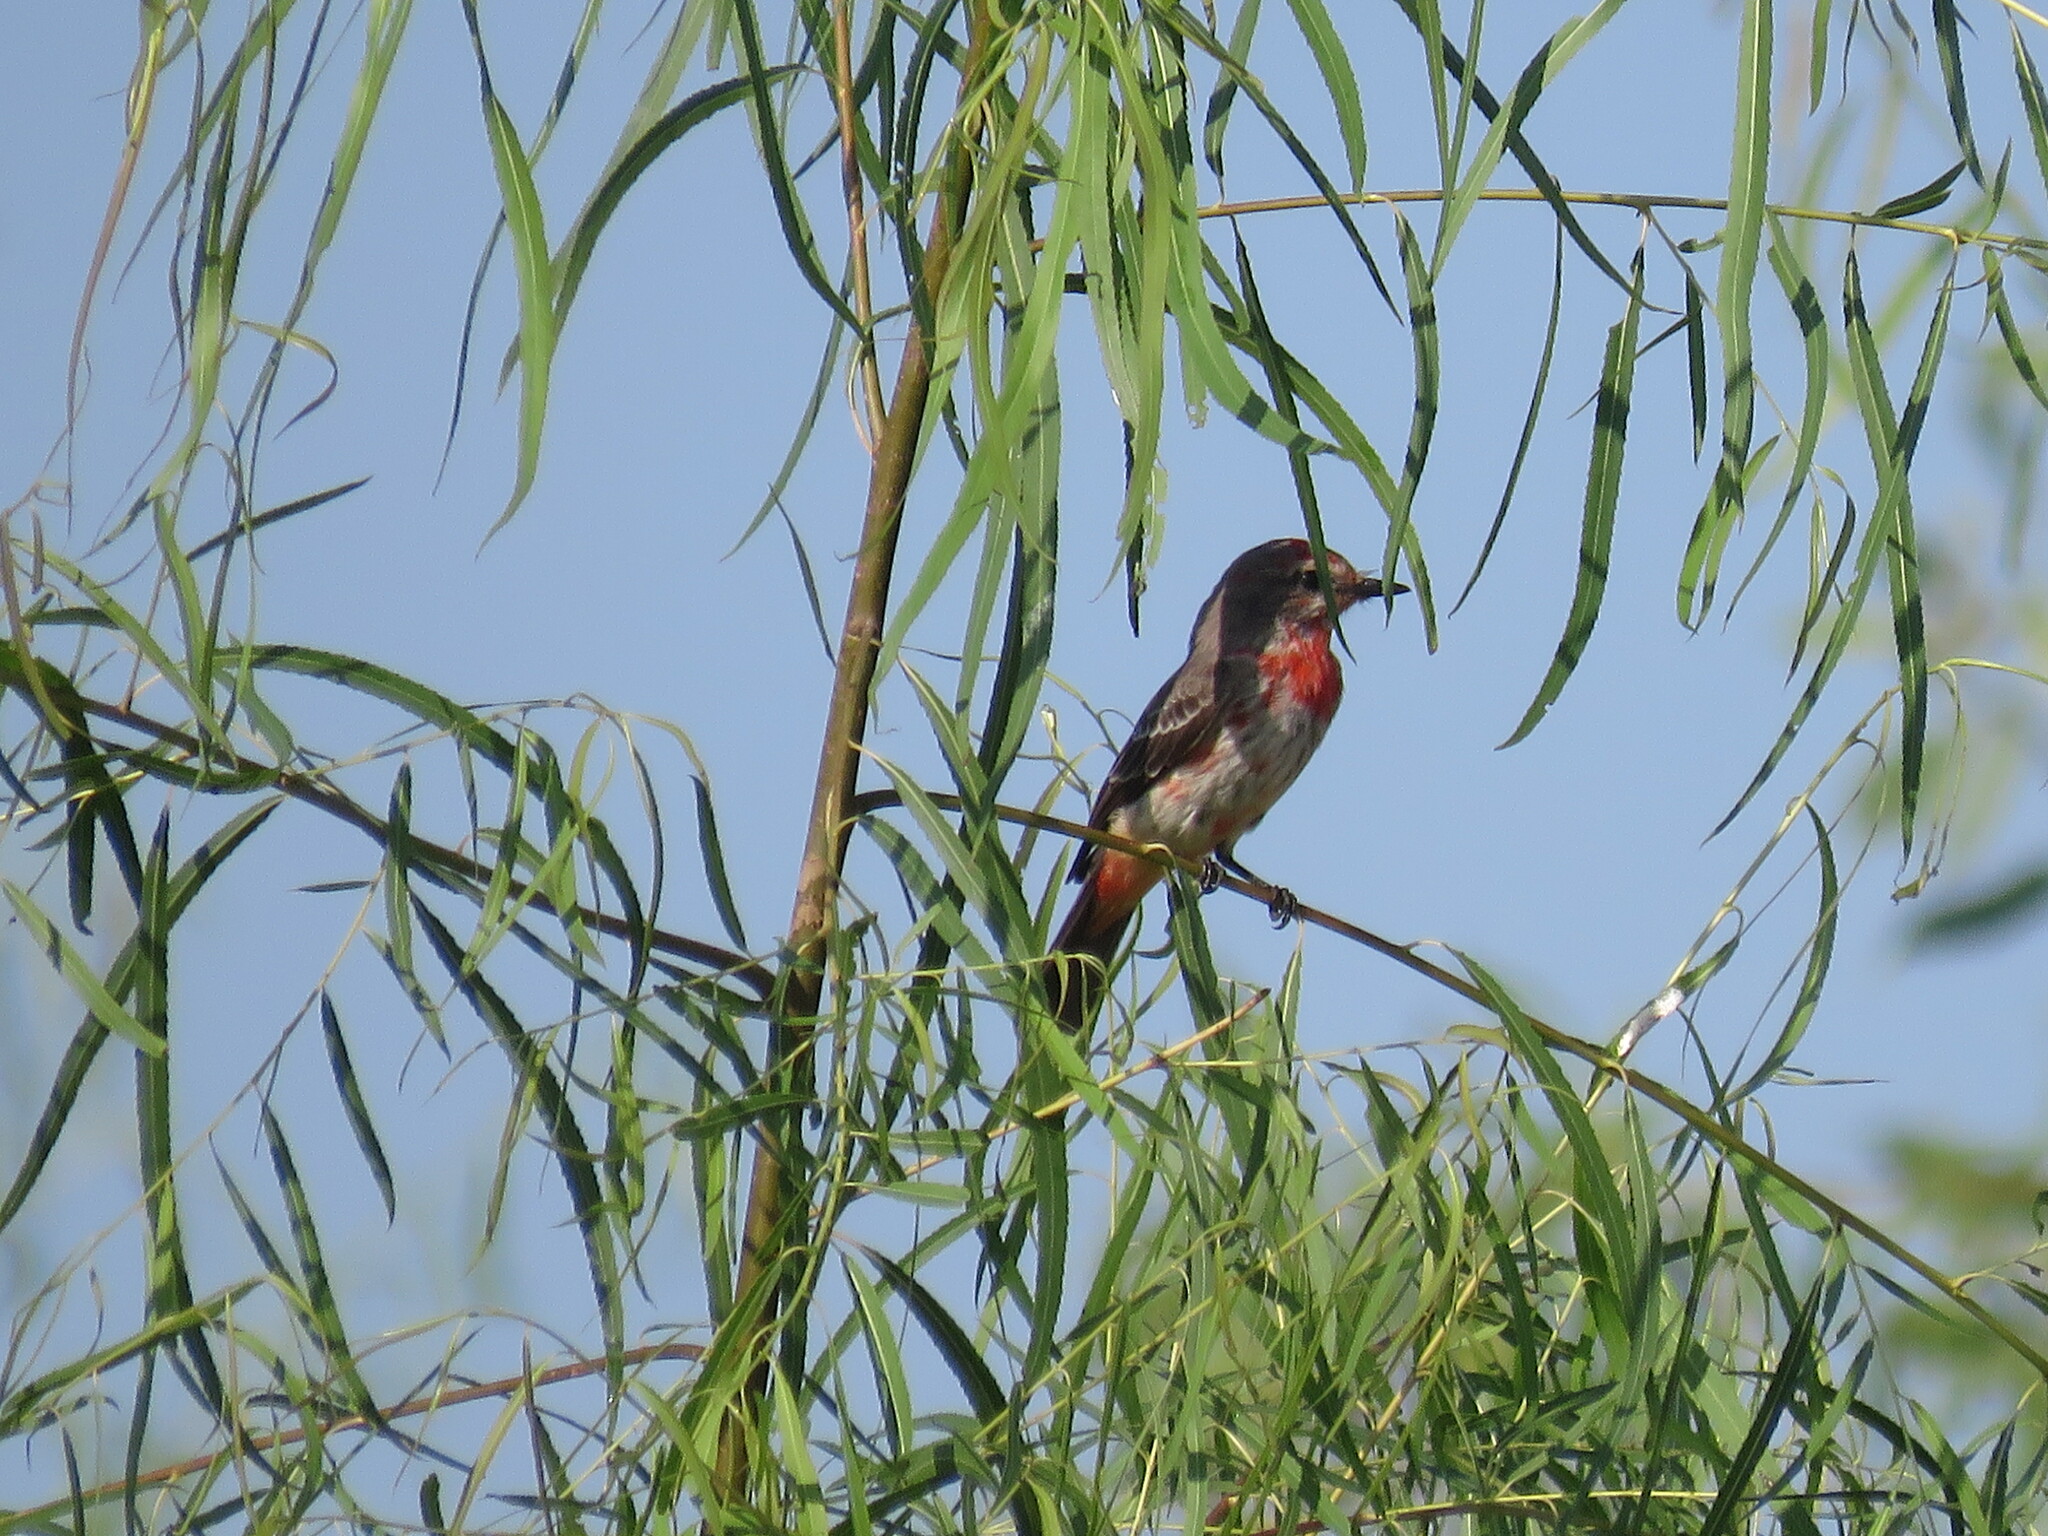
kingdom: Animalia
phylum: Chordata
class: Aves
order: Passeriformes
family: Tyrannidae
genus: Pyrocephalus
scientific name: Pyrocephalus rubinus
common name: Vermilion flycatcher
